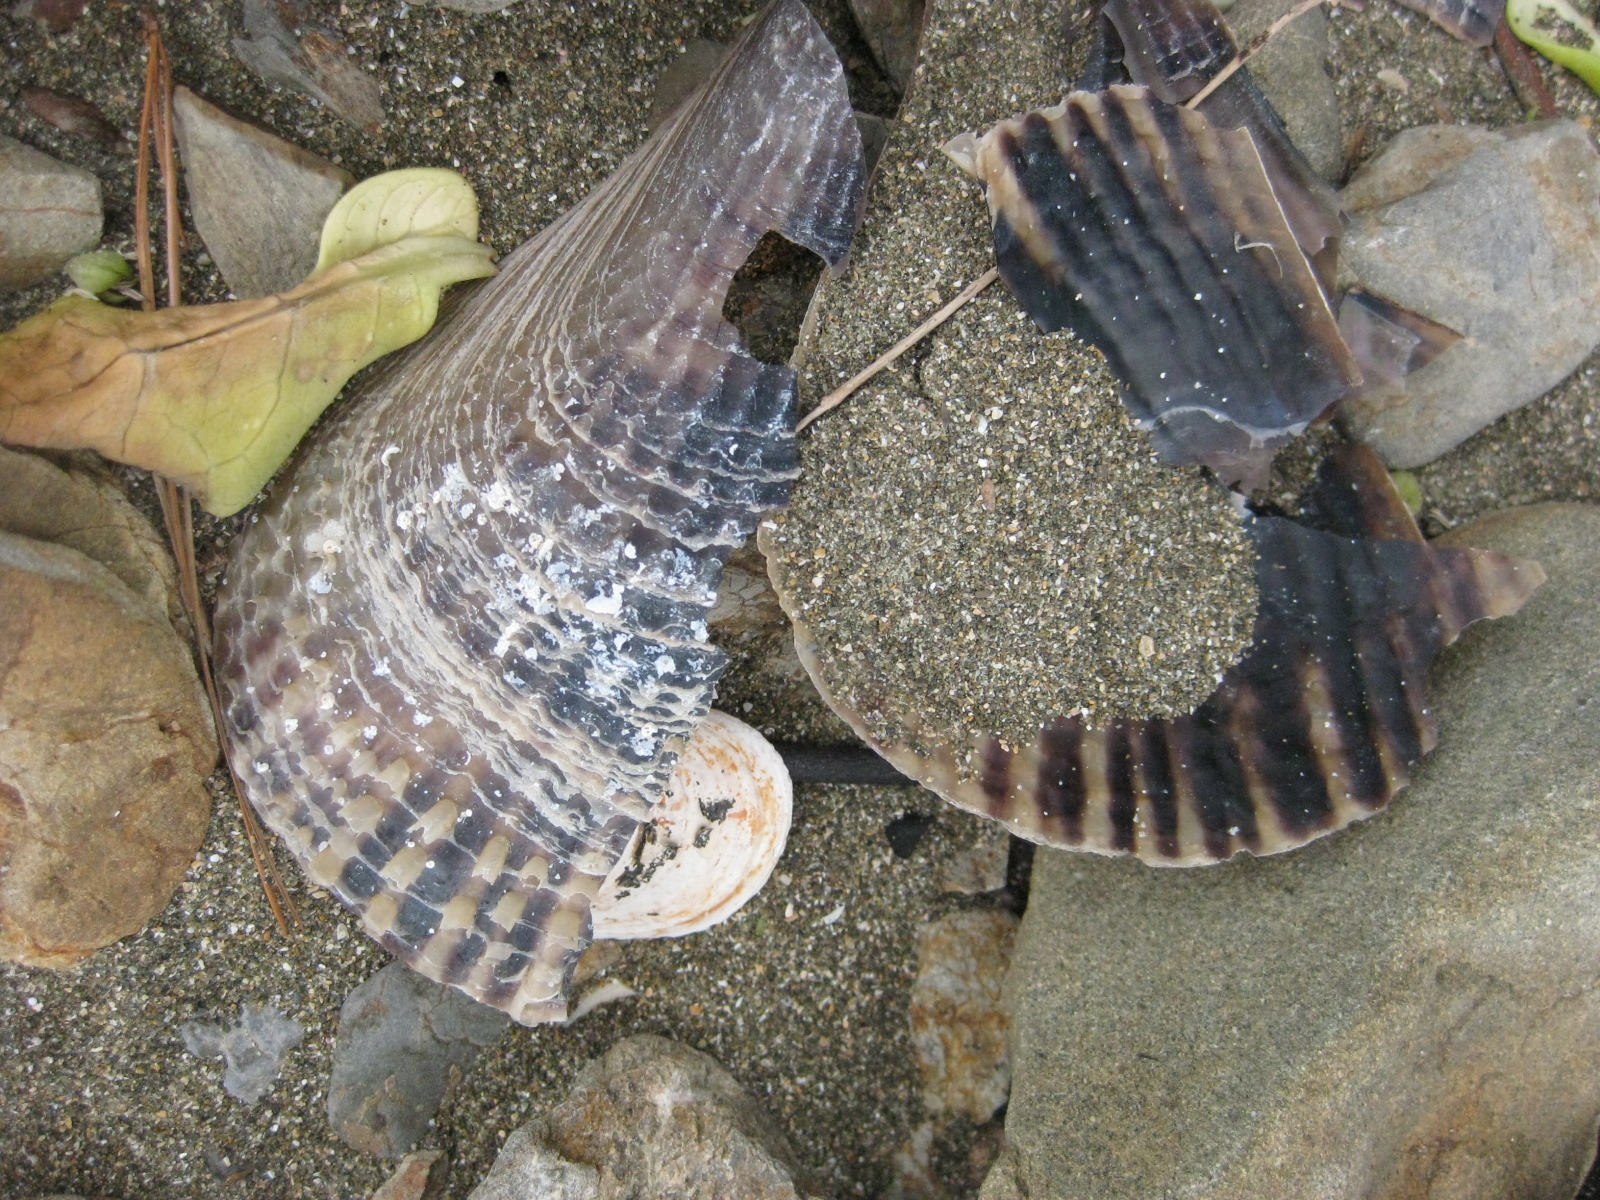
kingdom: Animalia
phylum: Mollusca
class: Bivalvia
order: Ostreida
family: Pinnidae
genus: Atrina
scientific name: Atrina zelandica
